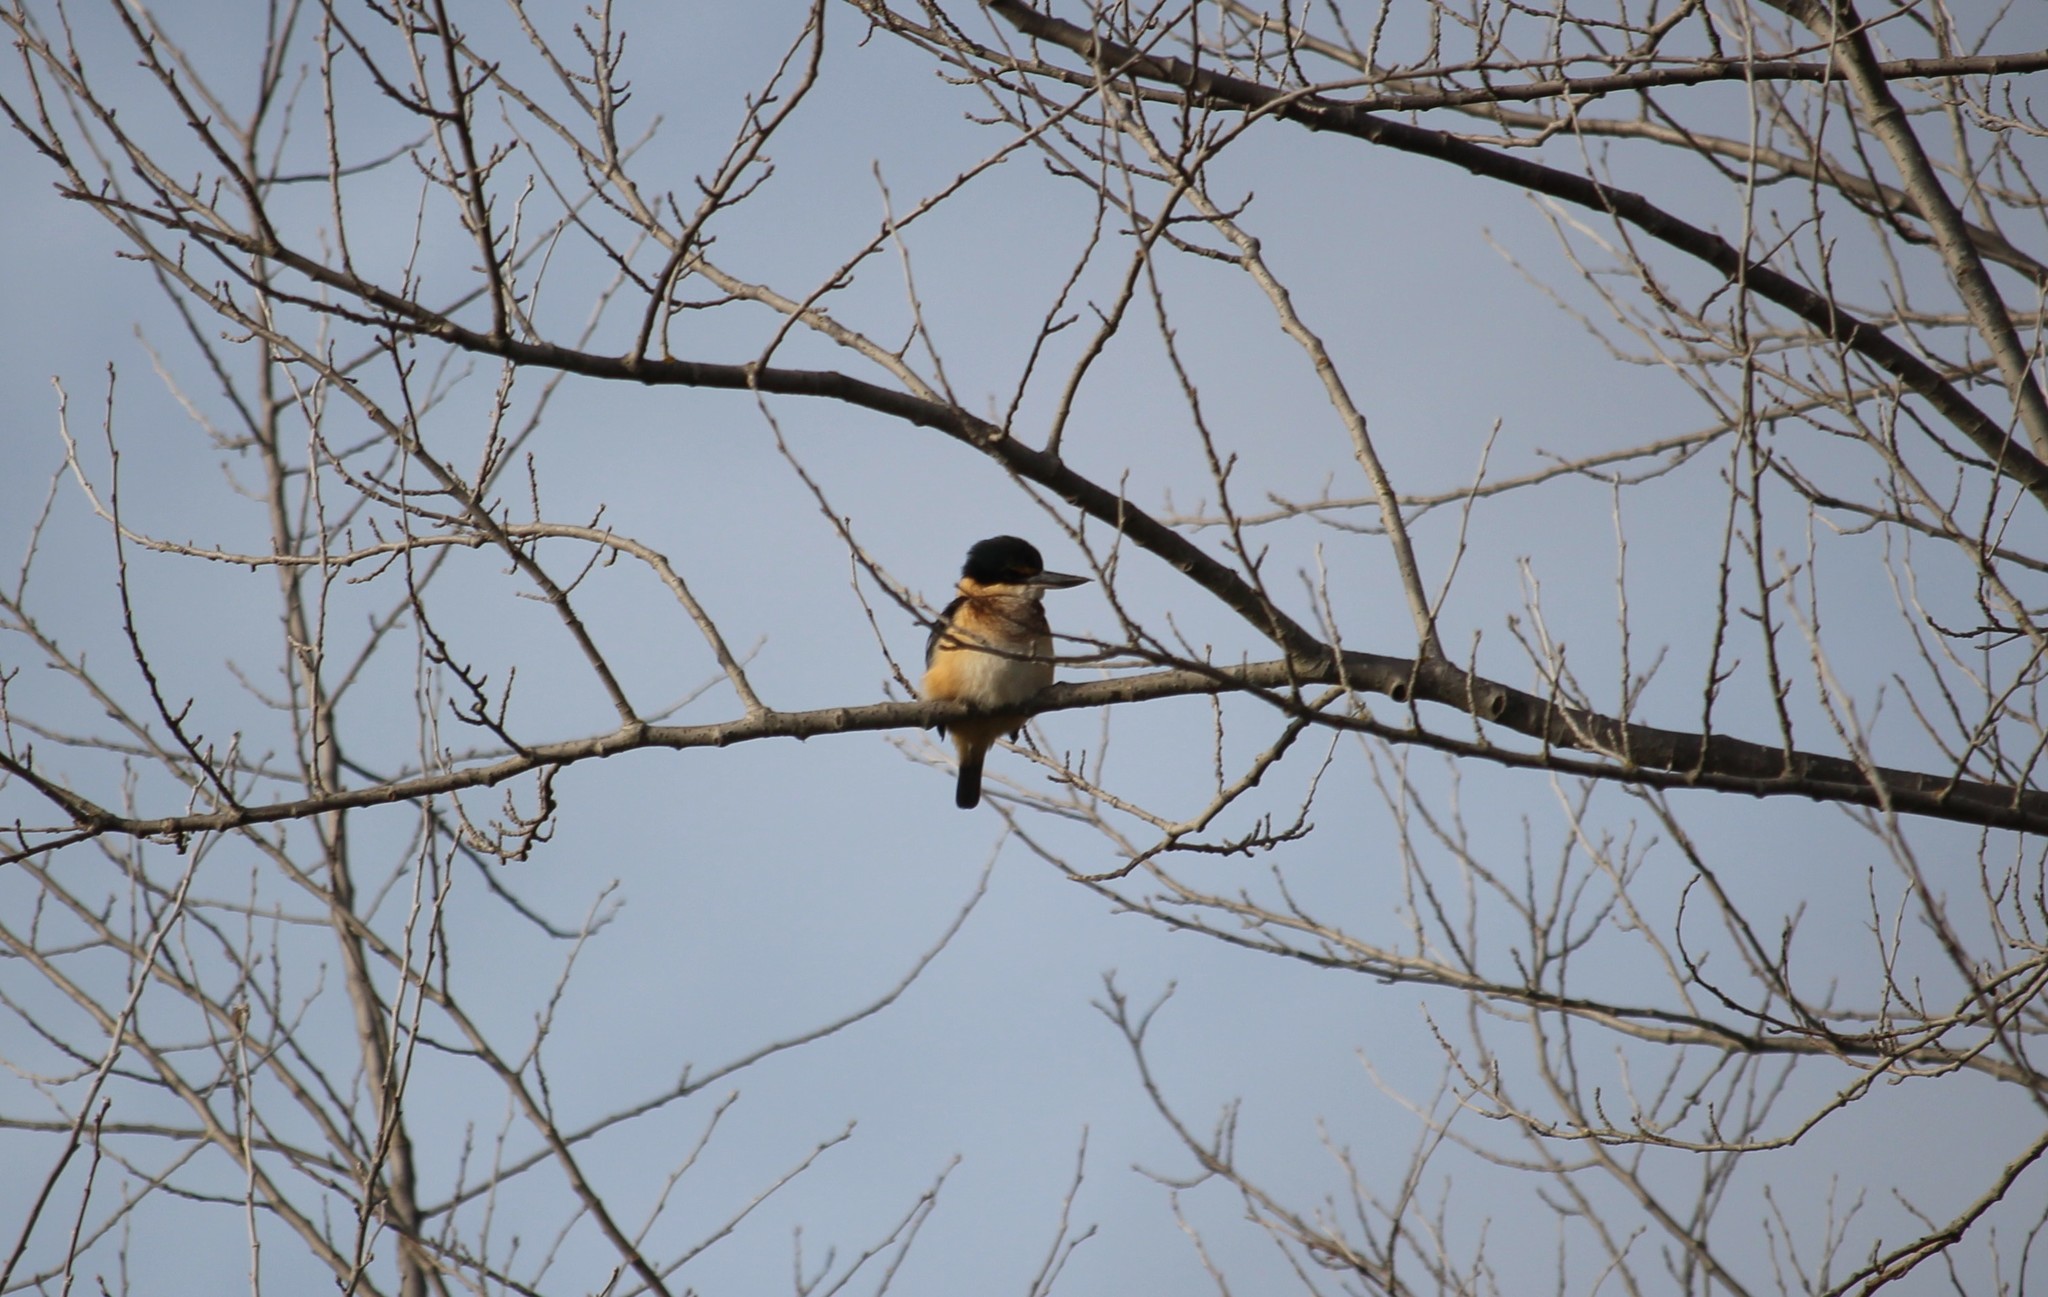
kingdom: Animalia
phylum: Chordata
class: Aves
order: Coraciiformes
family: Alcedinidae
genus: Todiramphus
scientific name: Todiramphus sanctus
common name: Sacred kingfisher
